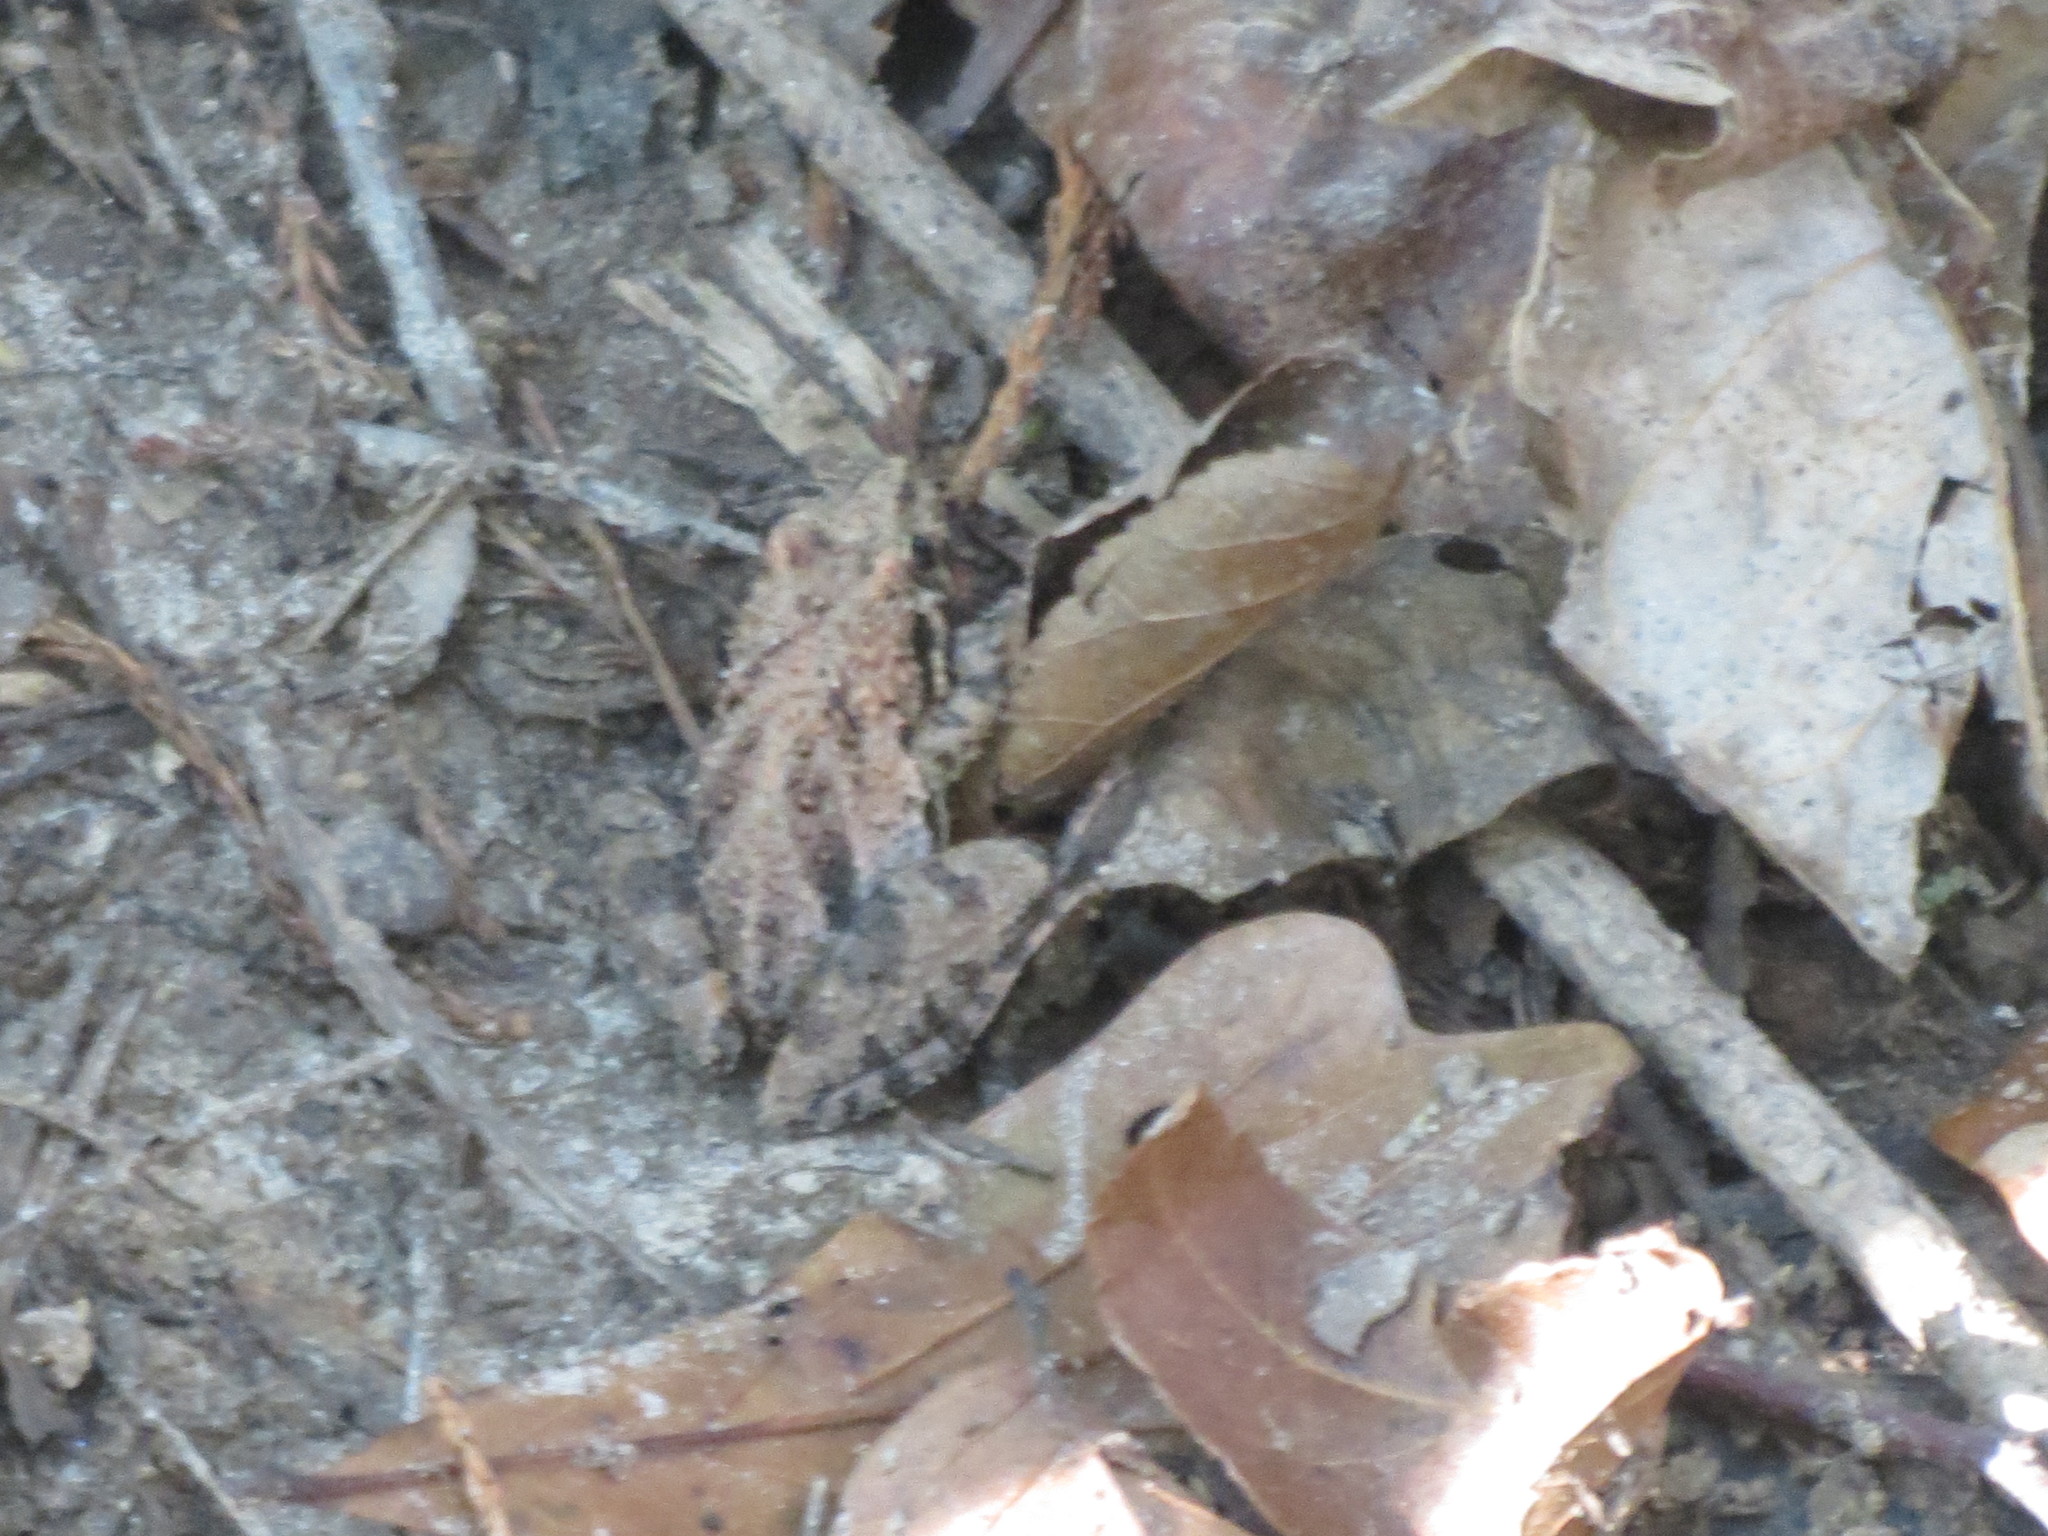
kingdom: Animalia
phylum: Chordata
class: Amphibia
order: Anura
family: Hylidae
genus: Acris
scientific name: Acris gryllus
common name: Southern cricket frog
